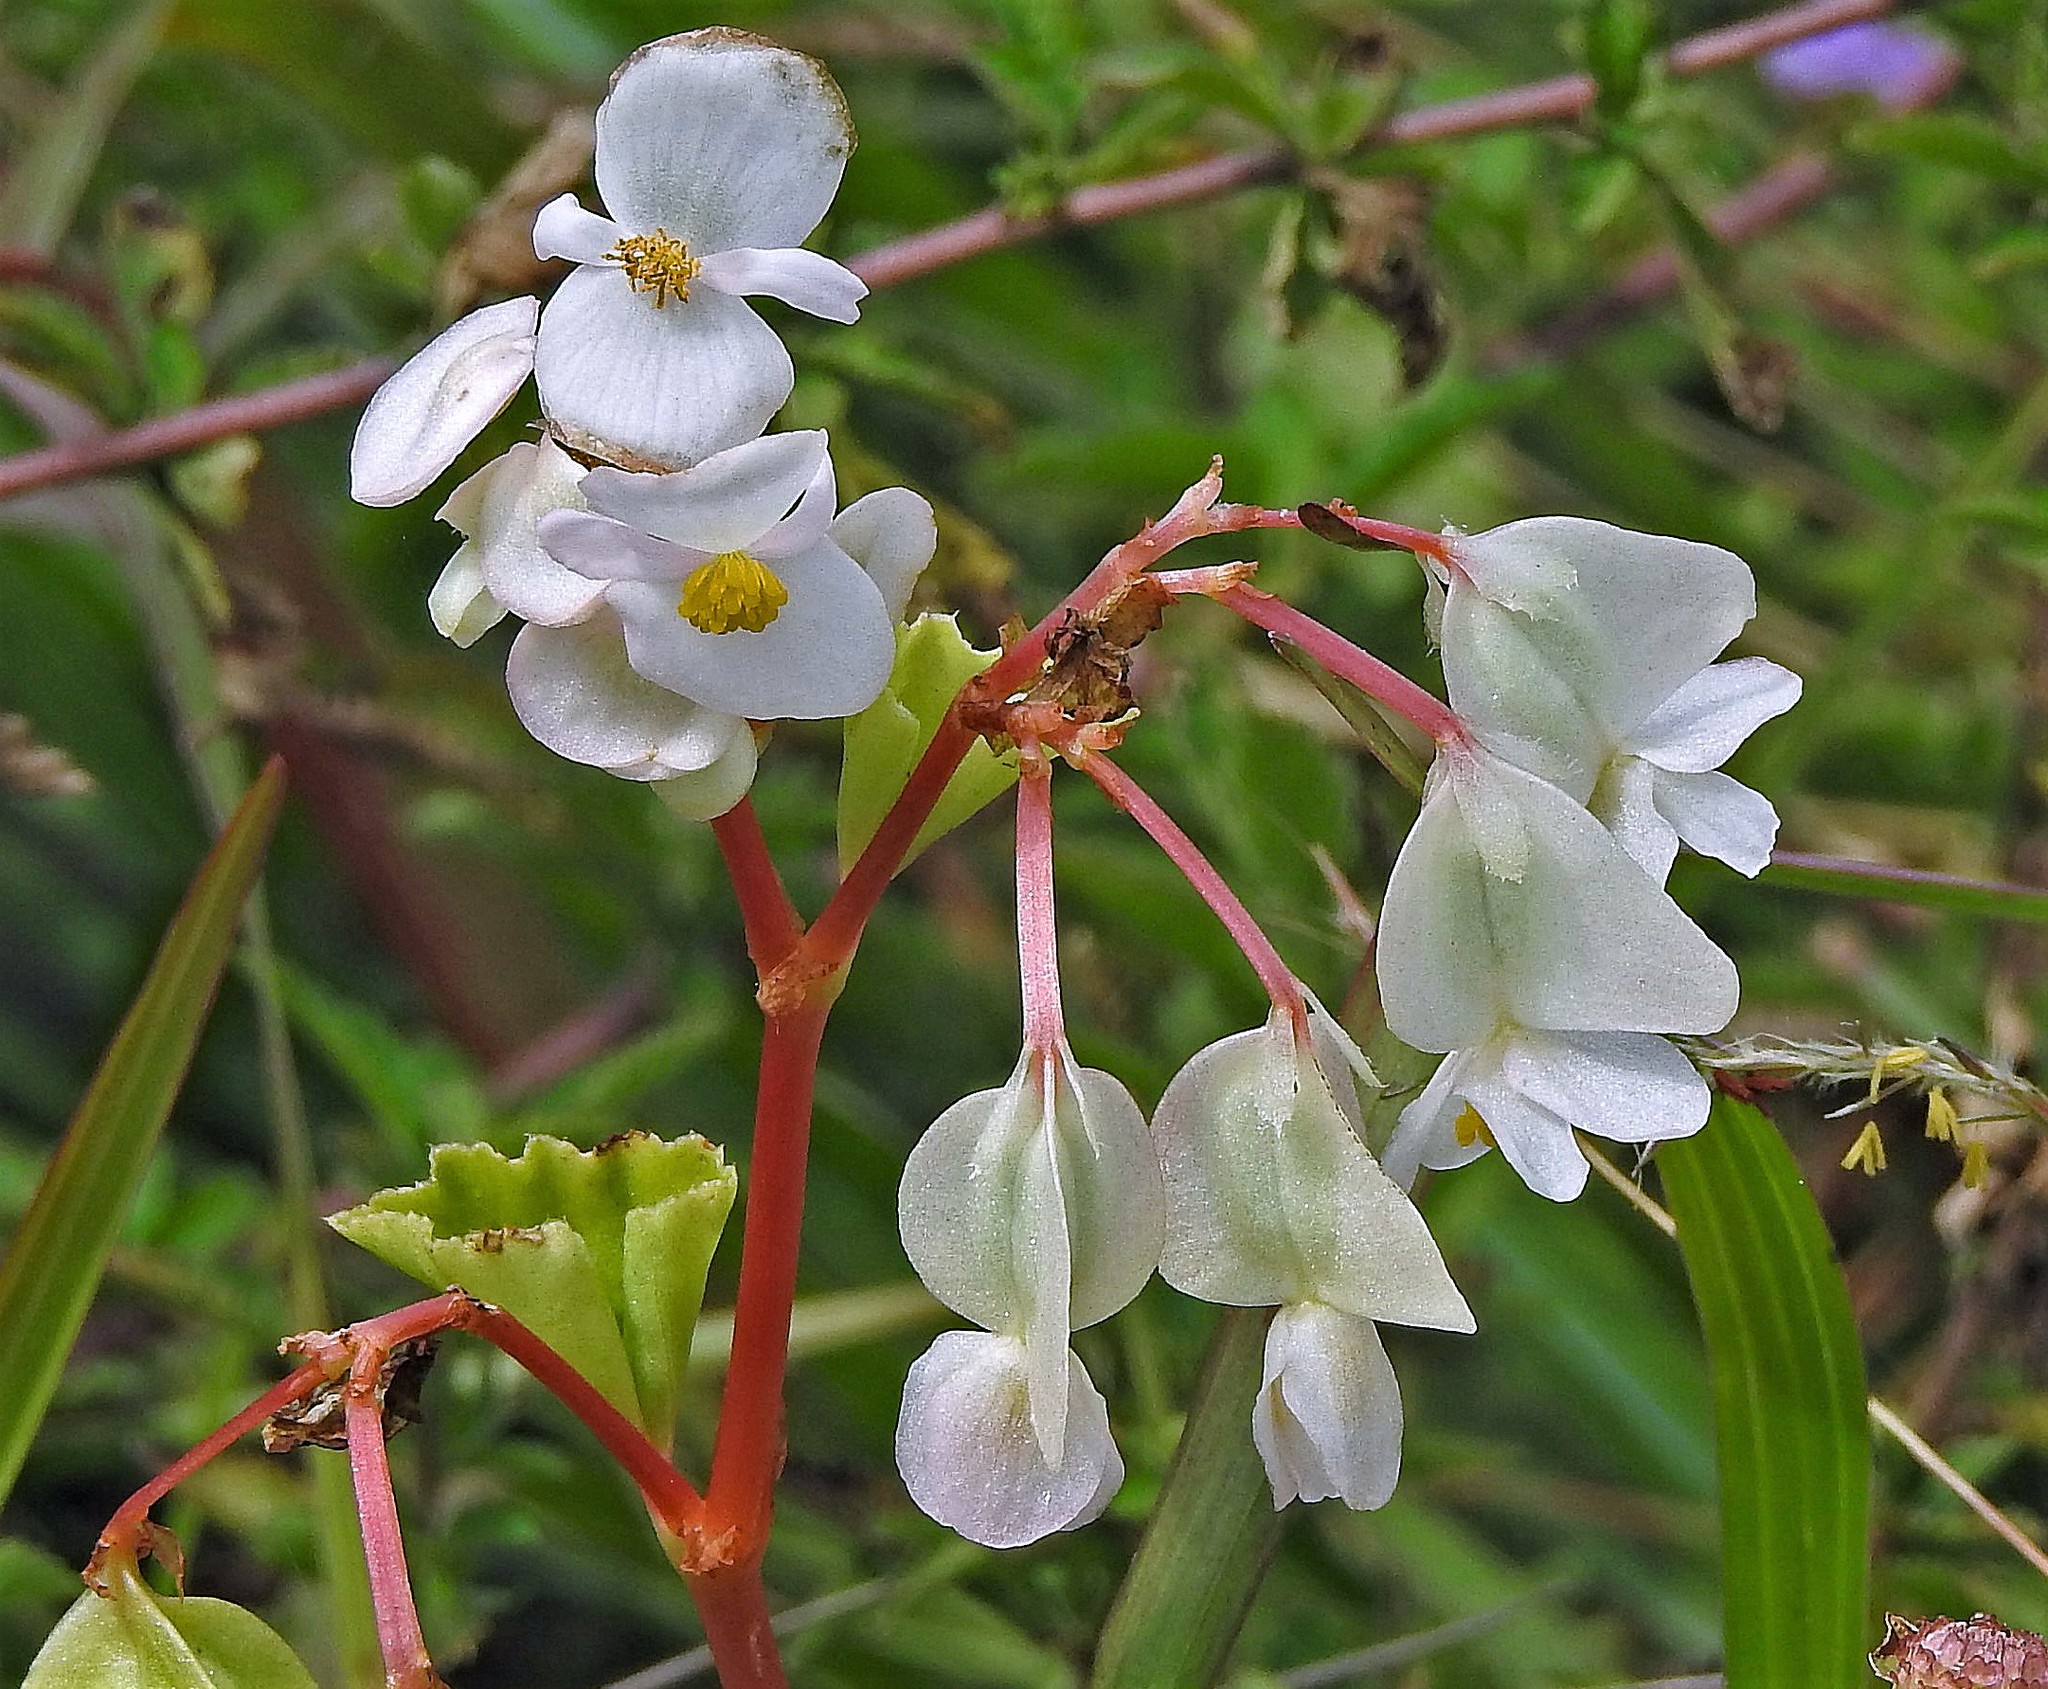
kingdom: Plantae
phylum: Tracheophyta
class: Magnoliopsida
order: Cucurbitales
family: Begoniaceae
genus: Begonia
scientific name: Begonia cucullata
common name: Clubbed begonia
